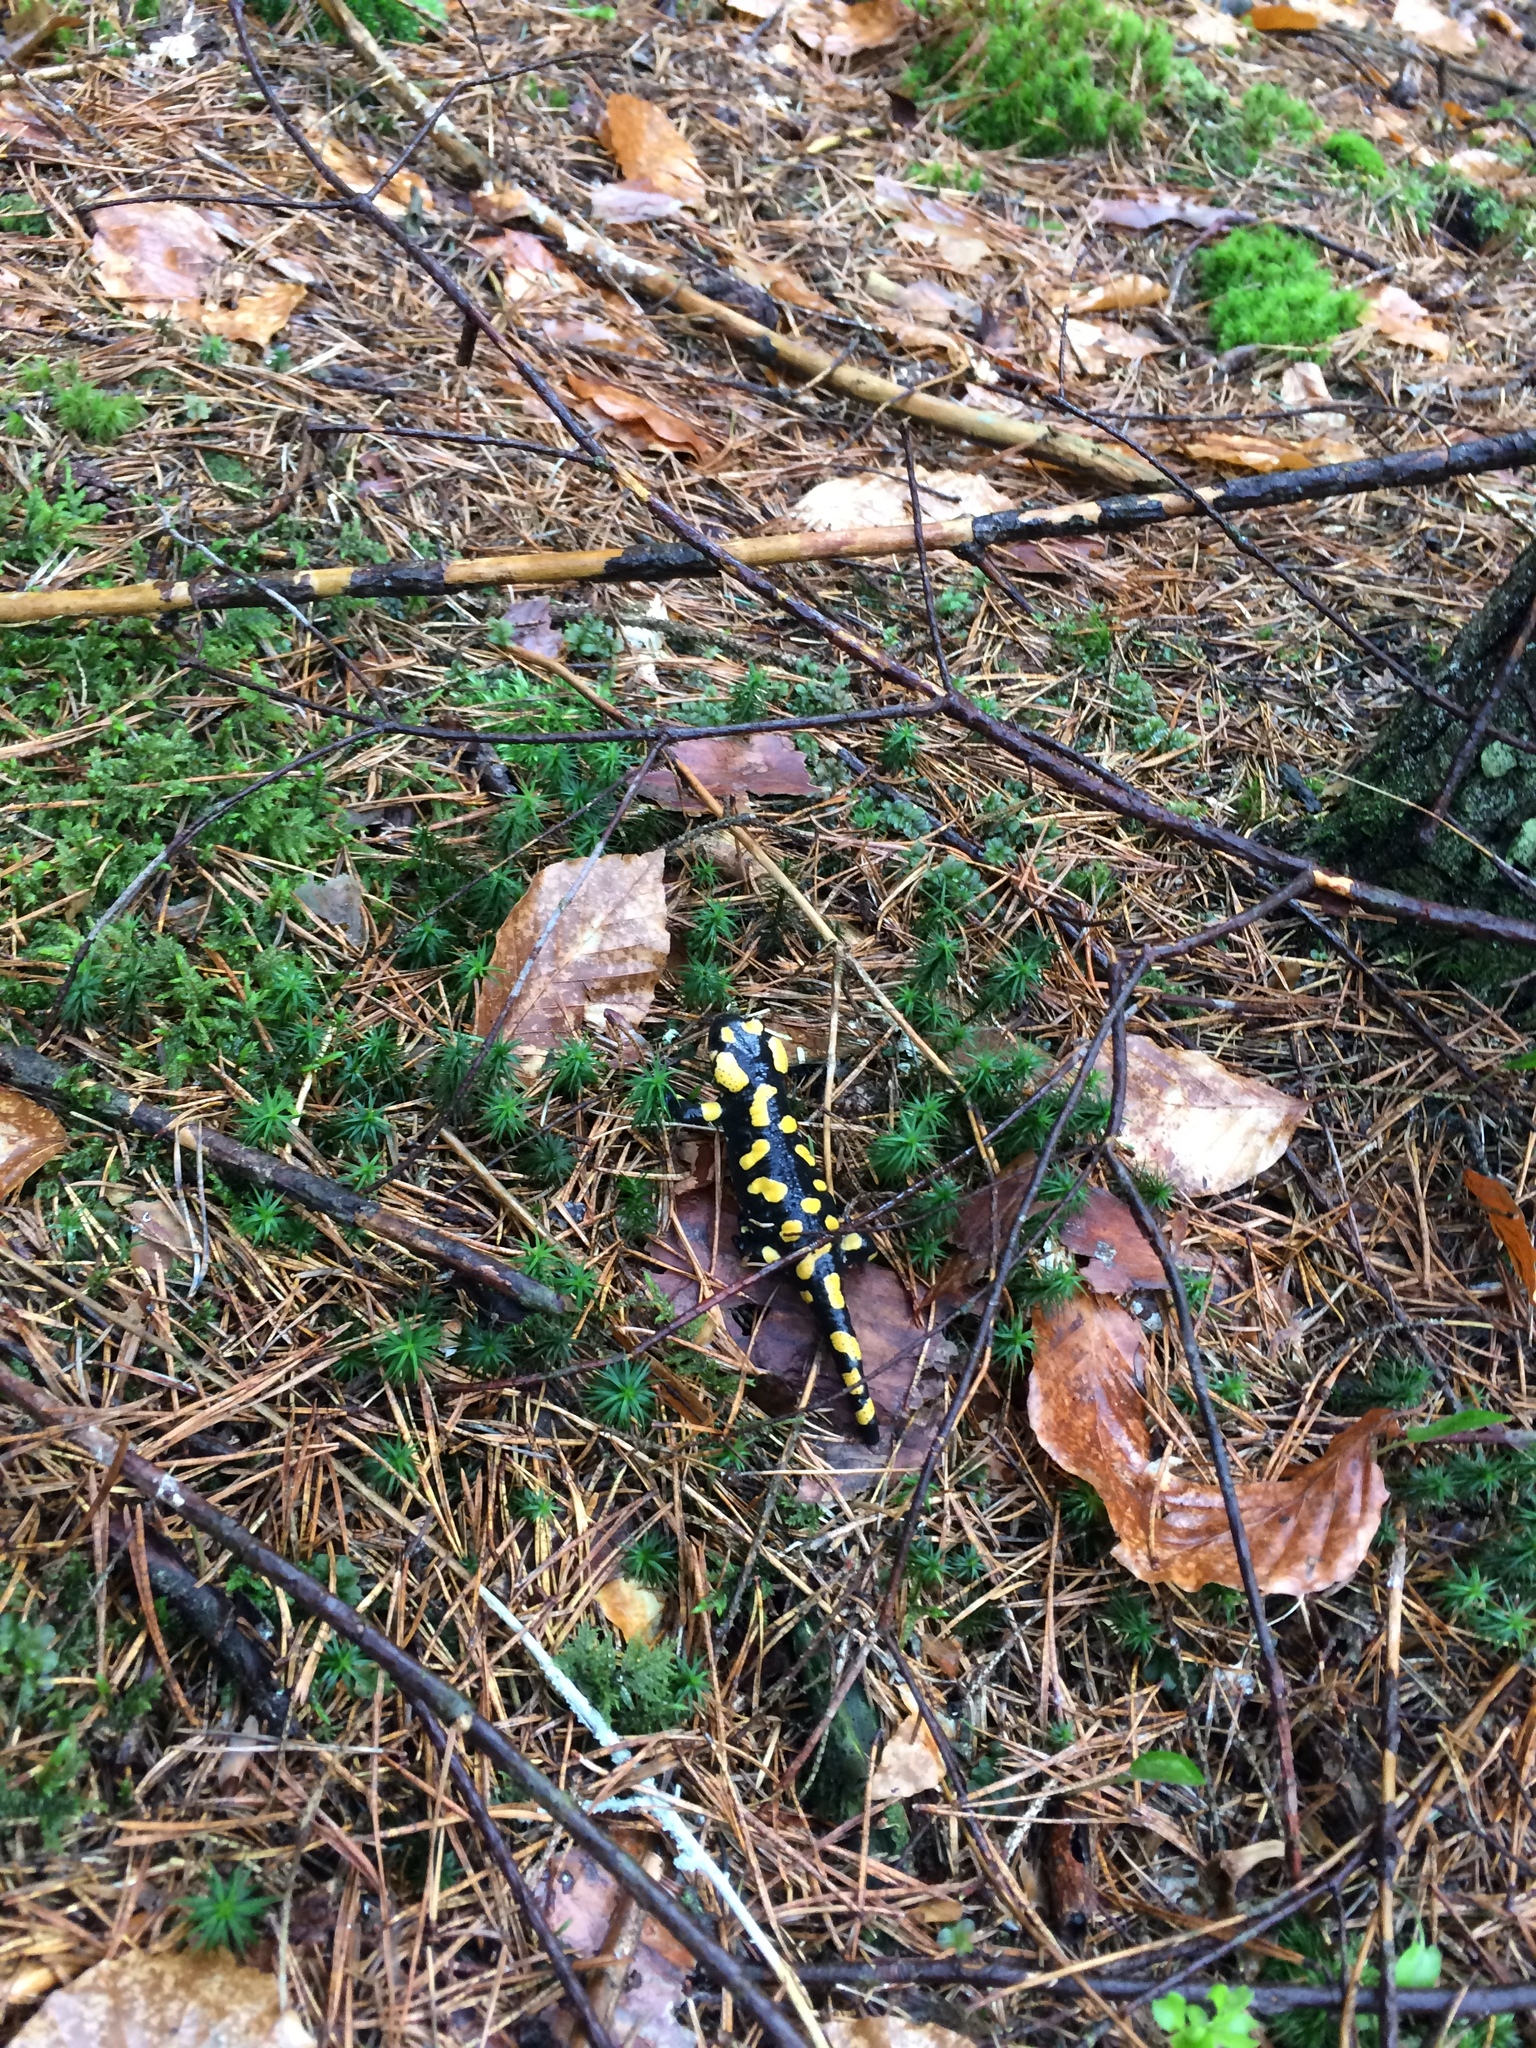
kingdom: Animalia
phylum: Chordata
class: Amphibia
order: Caudata
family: Salamandridae
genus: Salamandra
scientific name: Salamandra salamandra
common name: Fire salamander
